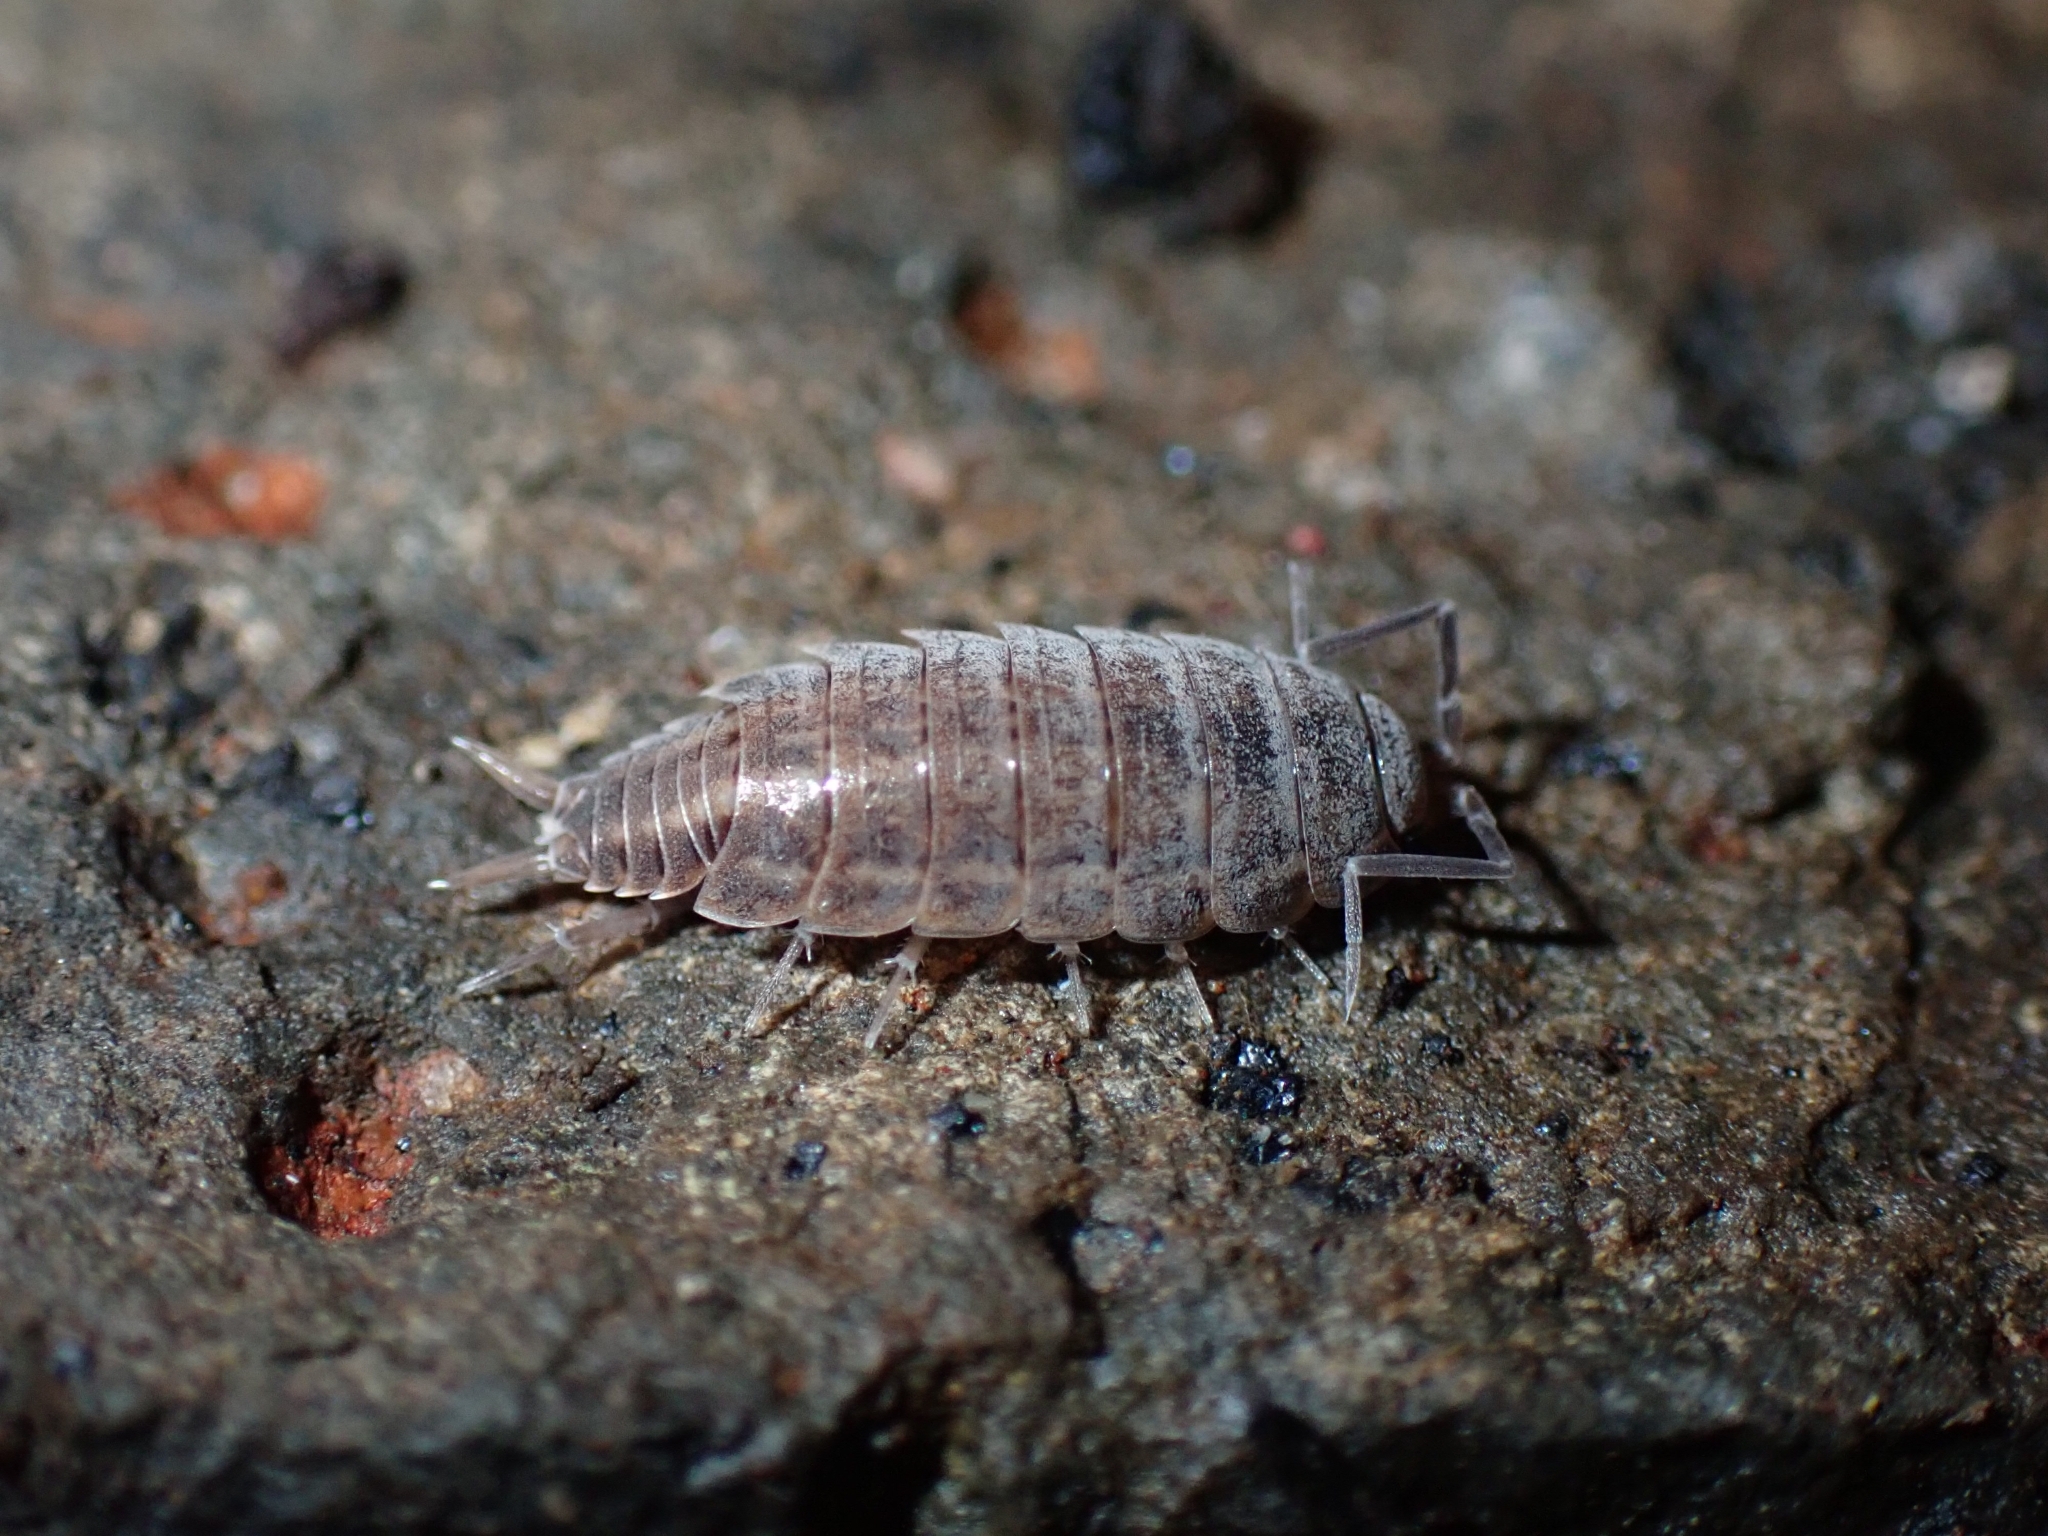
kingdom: Animalia
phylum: Arthropoda
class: Malacostraca
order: Isopoda
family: Porcellionidae
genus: Porcellionides
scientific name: Porcellionides sexfasciatus
